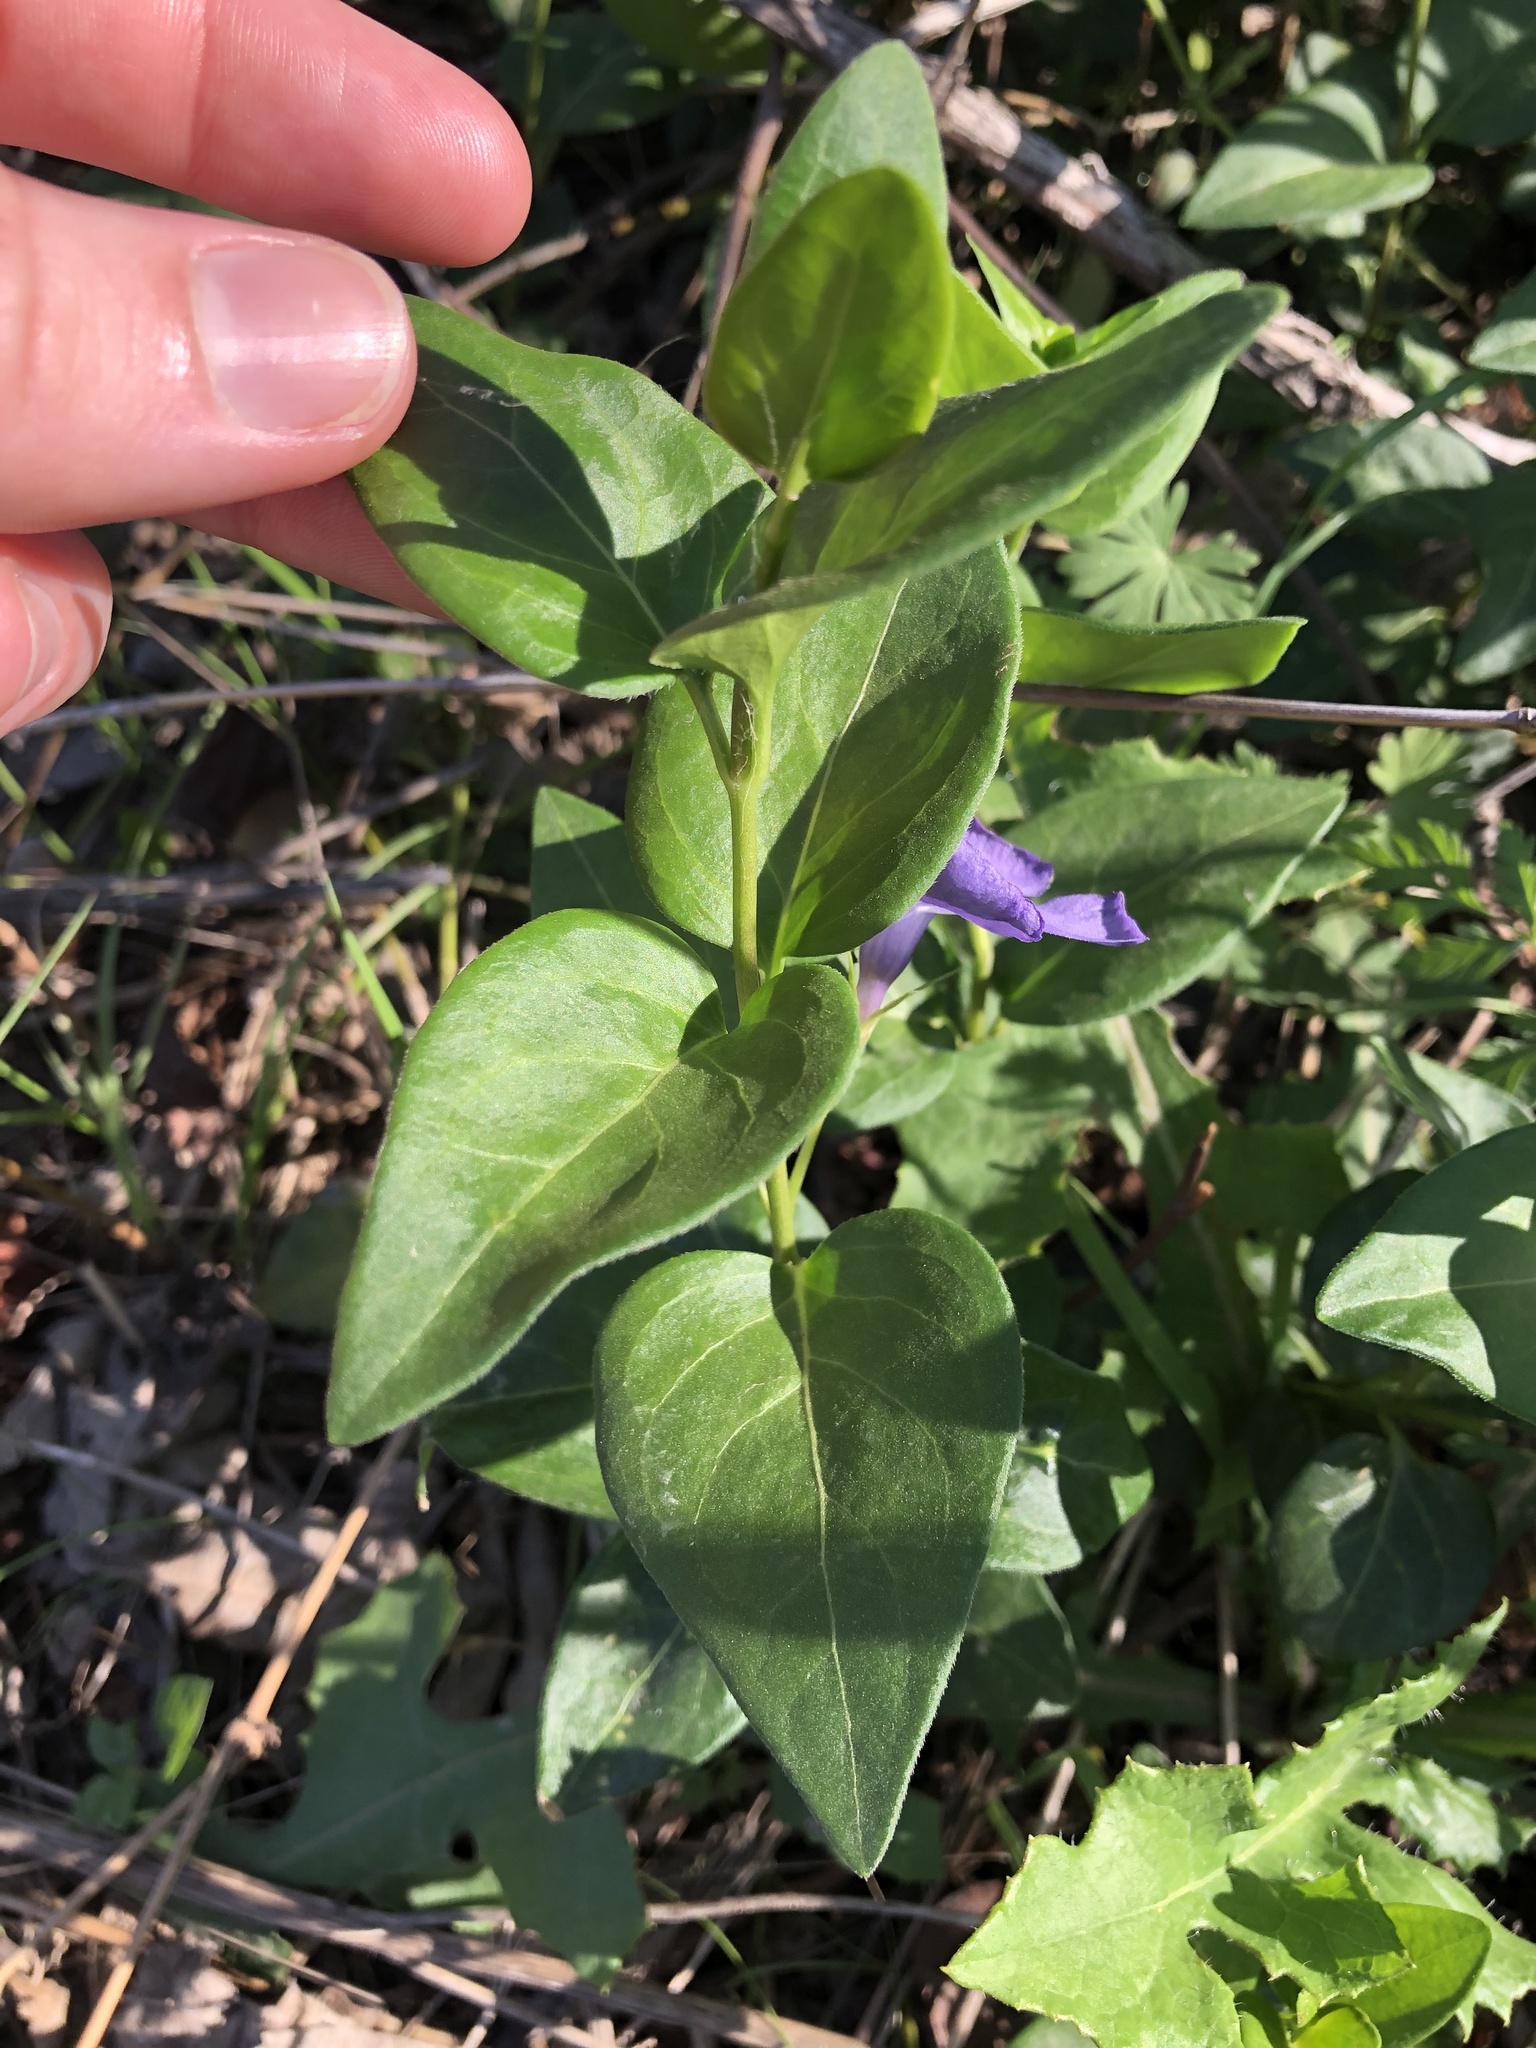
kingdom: Plantae
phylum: Tracheophyta
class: Magnoliopsida
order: Gentianales
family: Apocynaceae
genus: Vinca
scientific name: Vinca major
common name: Greater periwinkle
